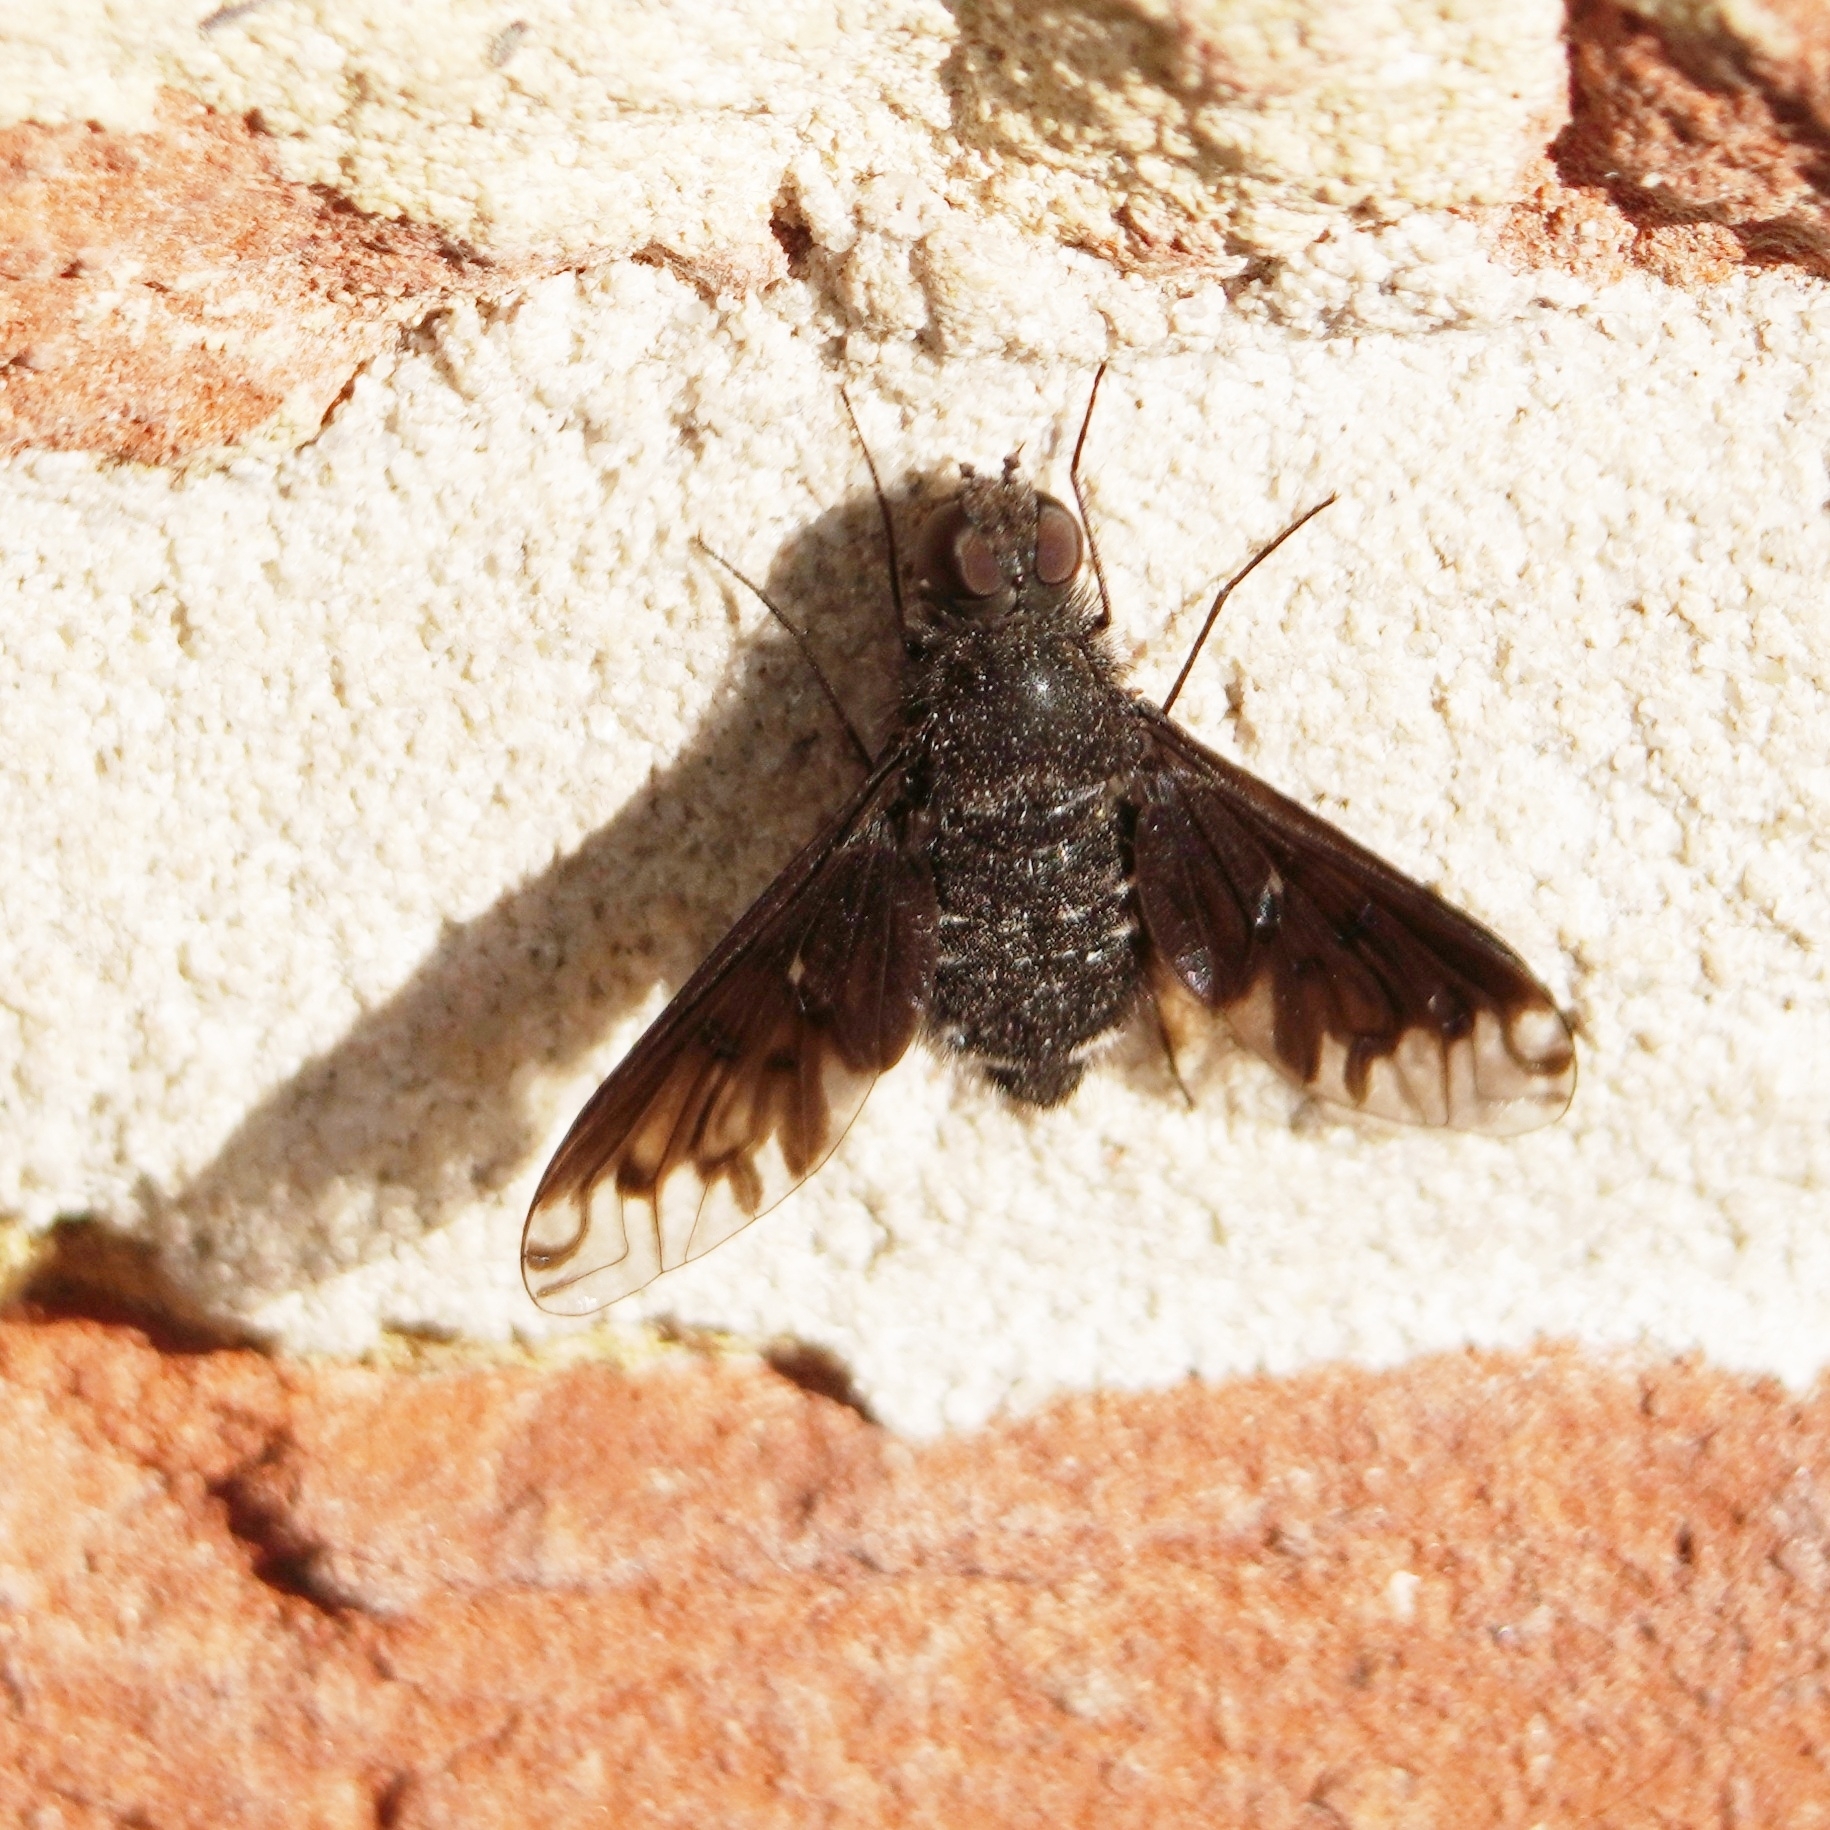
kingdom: Animalia
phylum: Arthropoda
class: Insecta
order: Diptera
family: Bombyliidae
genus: Anthrax
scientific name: Anthrax anthrax
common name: Anthracite bee-fly
